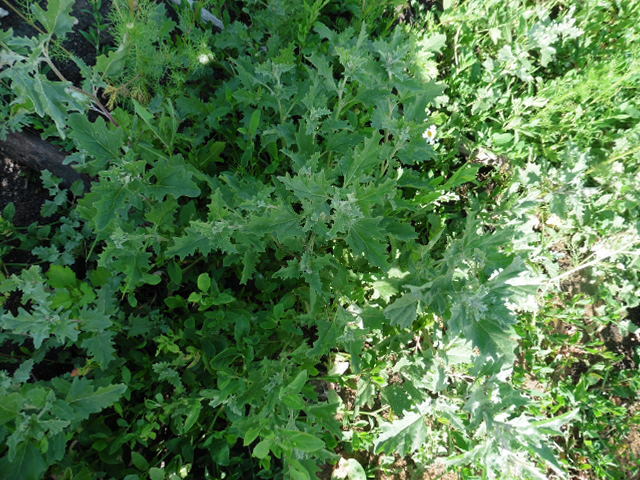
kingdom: Plantae
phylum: Tracheophyta
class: Magnoliopsida
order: Caryophyllales
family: Amaranthaceae
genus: Atriplex
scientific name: Atriplex tatarica
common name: Tatarian orache
